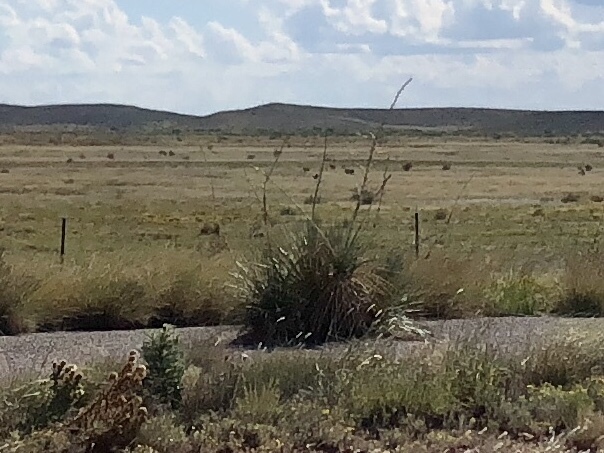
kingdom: Plantae
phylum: Tracheophyta
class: Liliopsida
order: Asparagales
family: Asparagaceae
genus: Yucca
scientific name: Yucca elata
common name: Palmella
